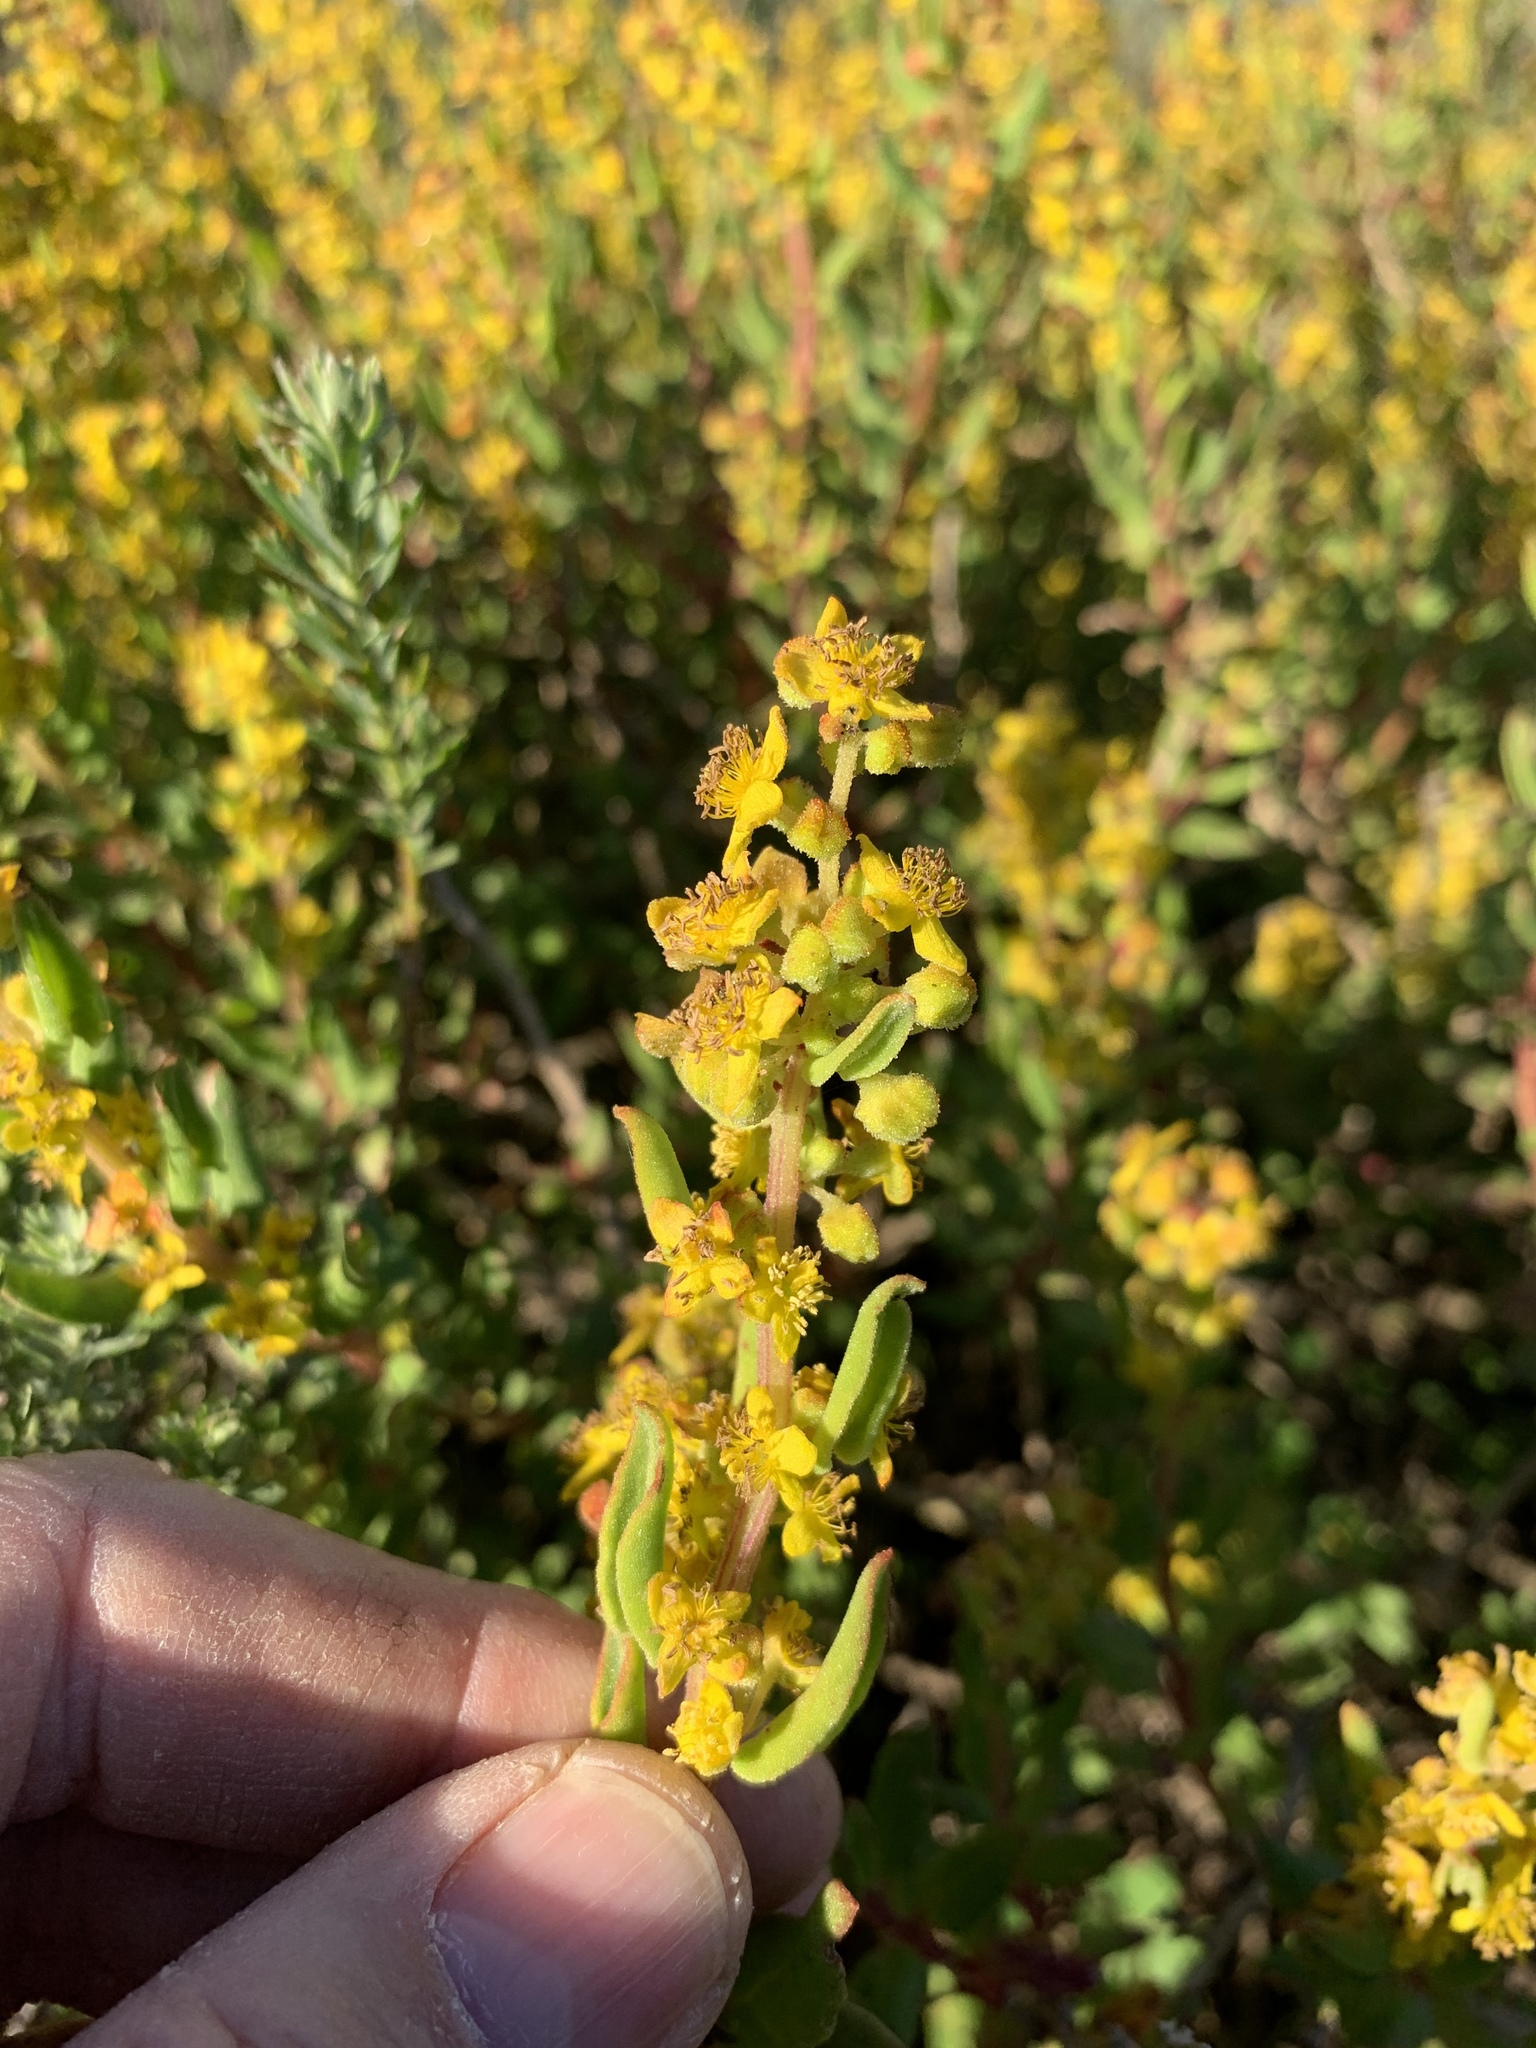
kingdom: Plantae
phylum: Tracheophyta
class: Magnoliopsida
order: Caryophyllales
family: Aizoaceae
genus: Tetragonia
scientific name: Tetragonia fruticosa
